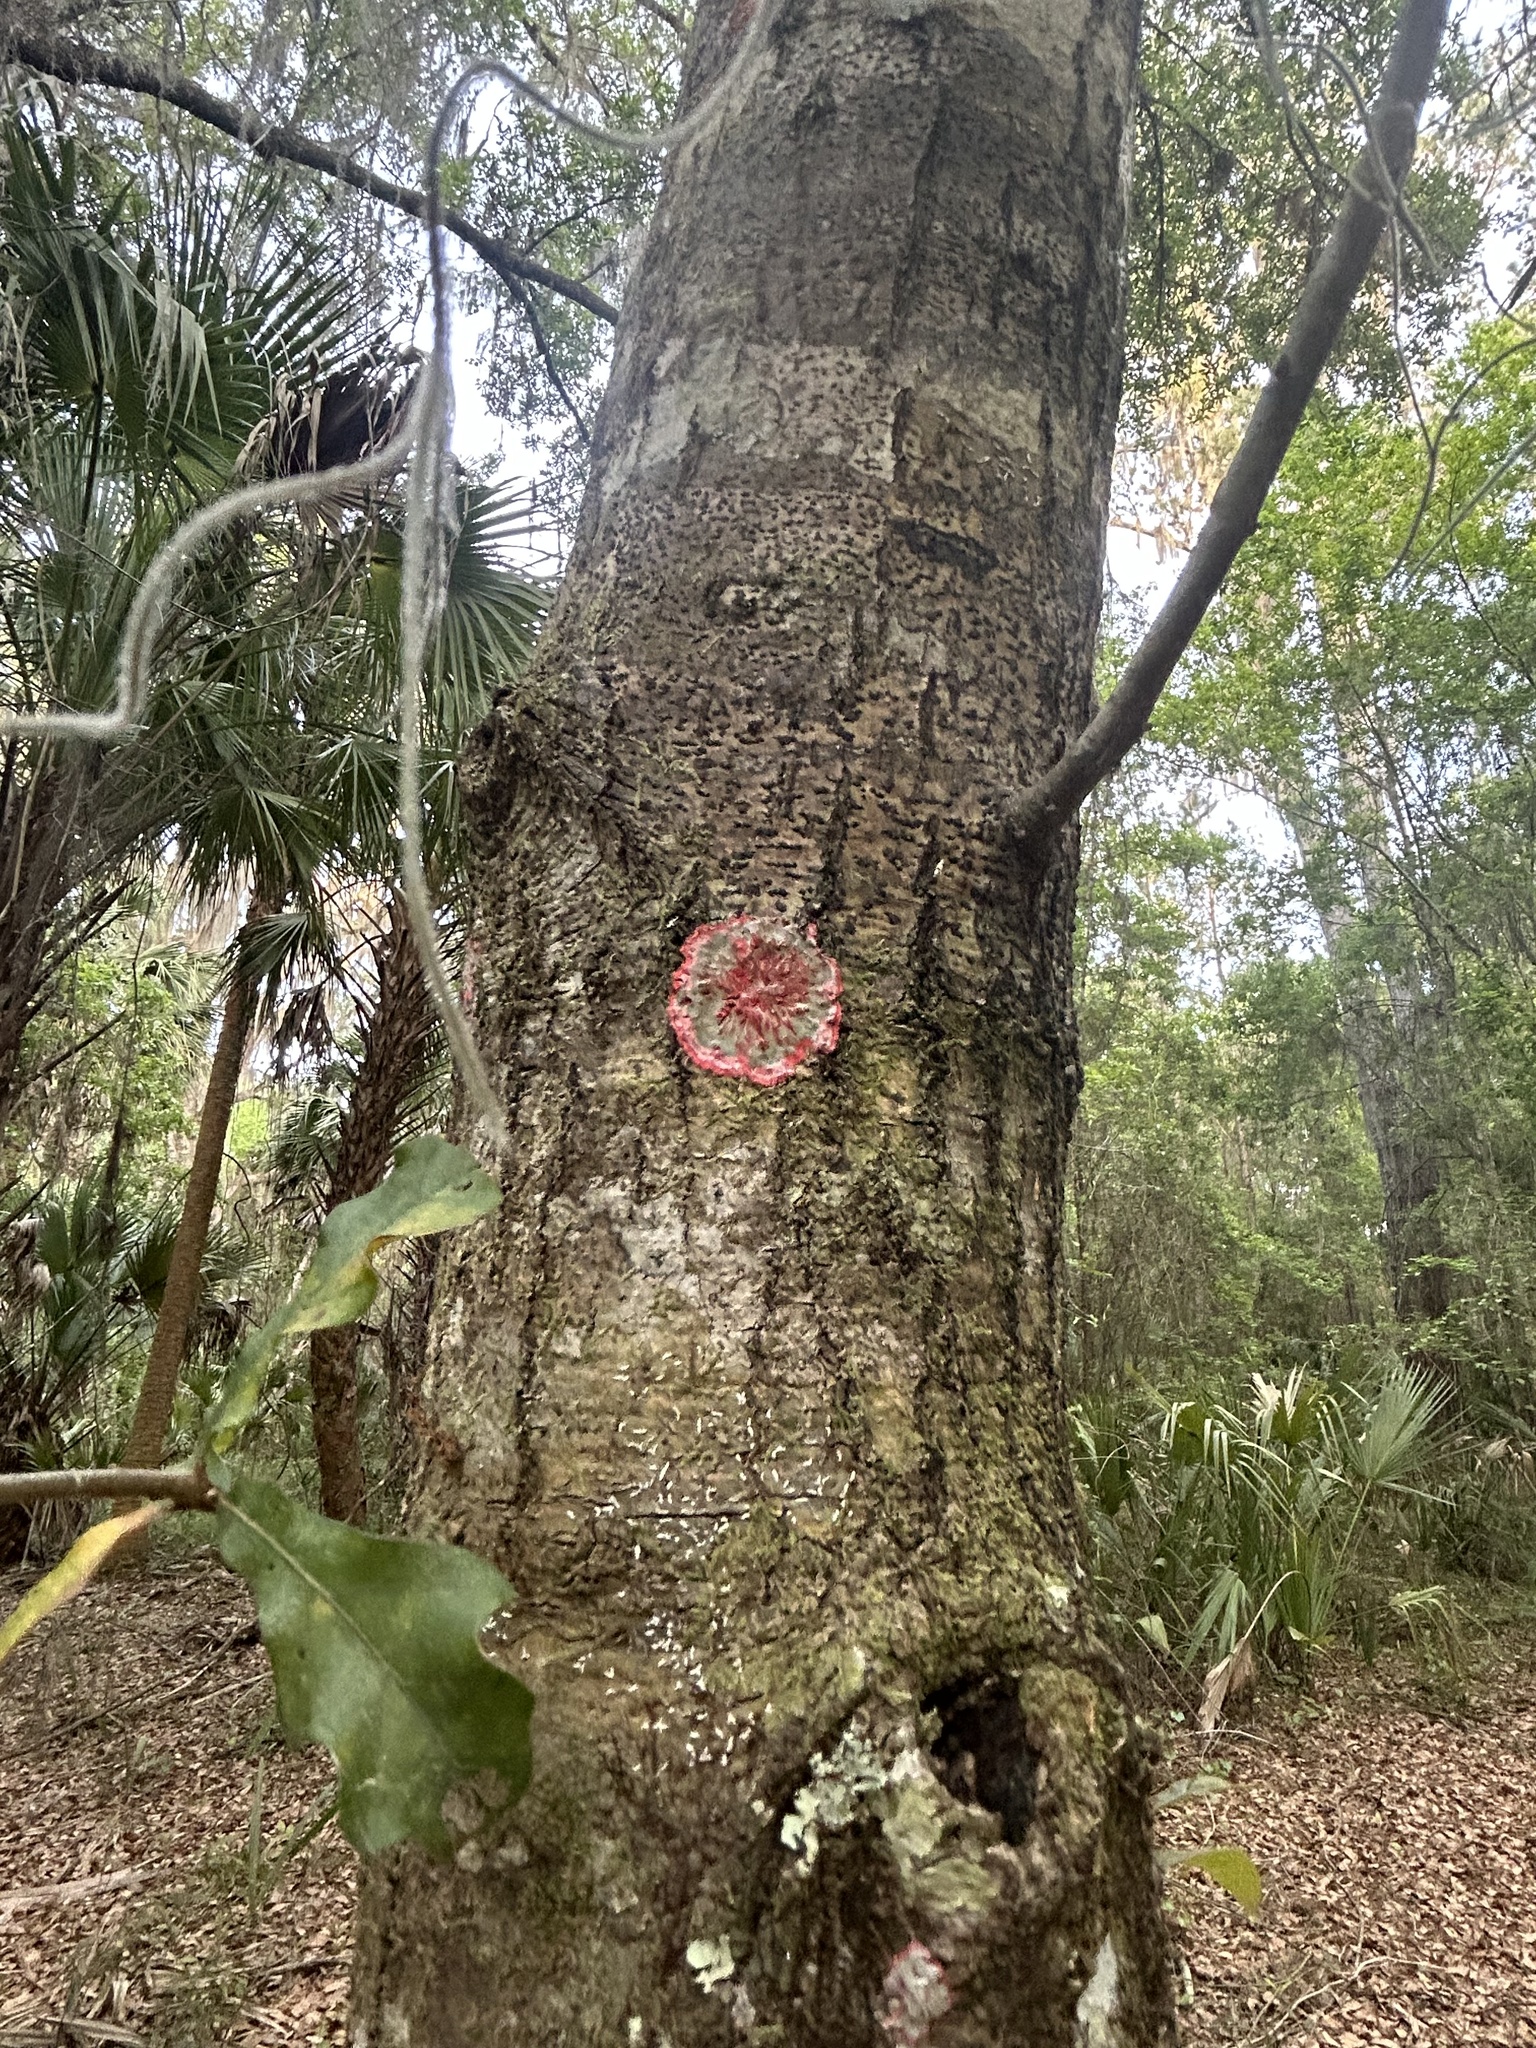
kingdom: Fungi
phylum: Ascomycota
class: Arthoniomycetes
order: Arthoniales
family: Arthoniaceae
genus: Herpothallon
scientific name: Herpothallon rubrocinctum
